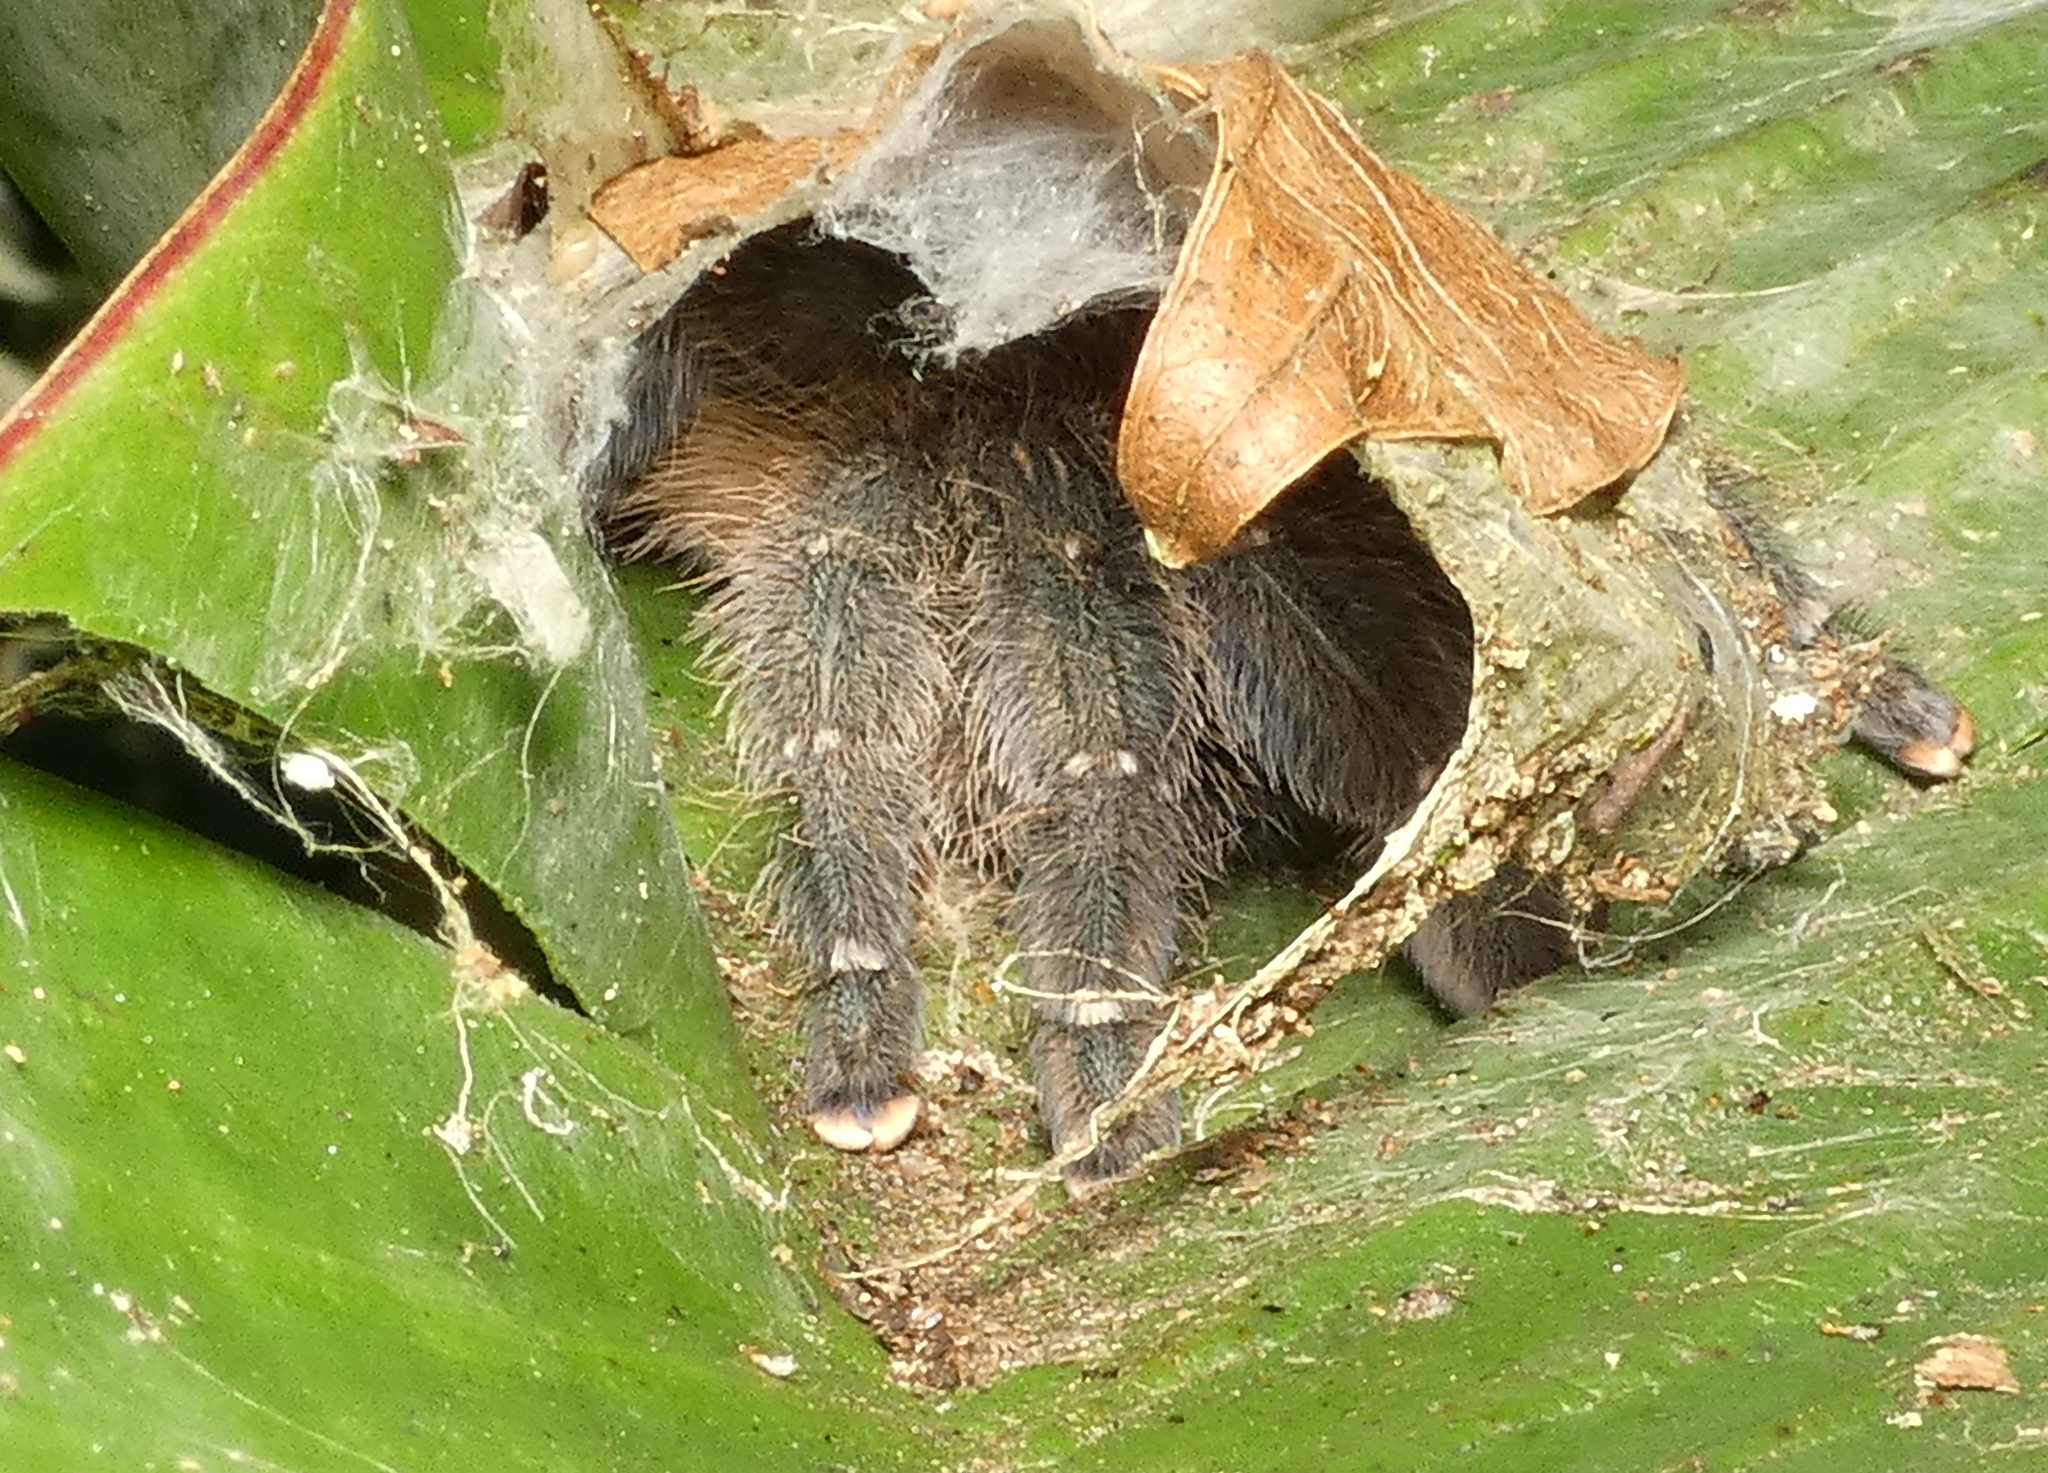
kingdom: Animalia
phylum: Arthropoda
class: Arachnida
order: Araneae
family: Theraphosidae
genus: Iridopelma
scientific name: Iridopelma hirsutum
